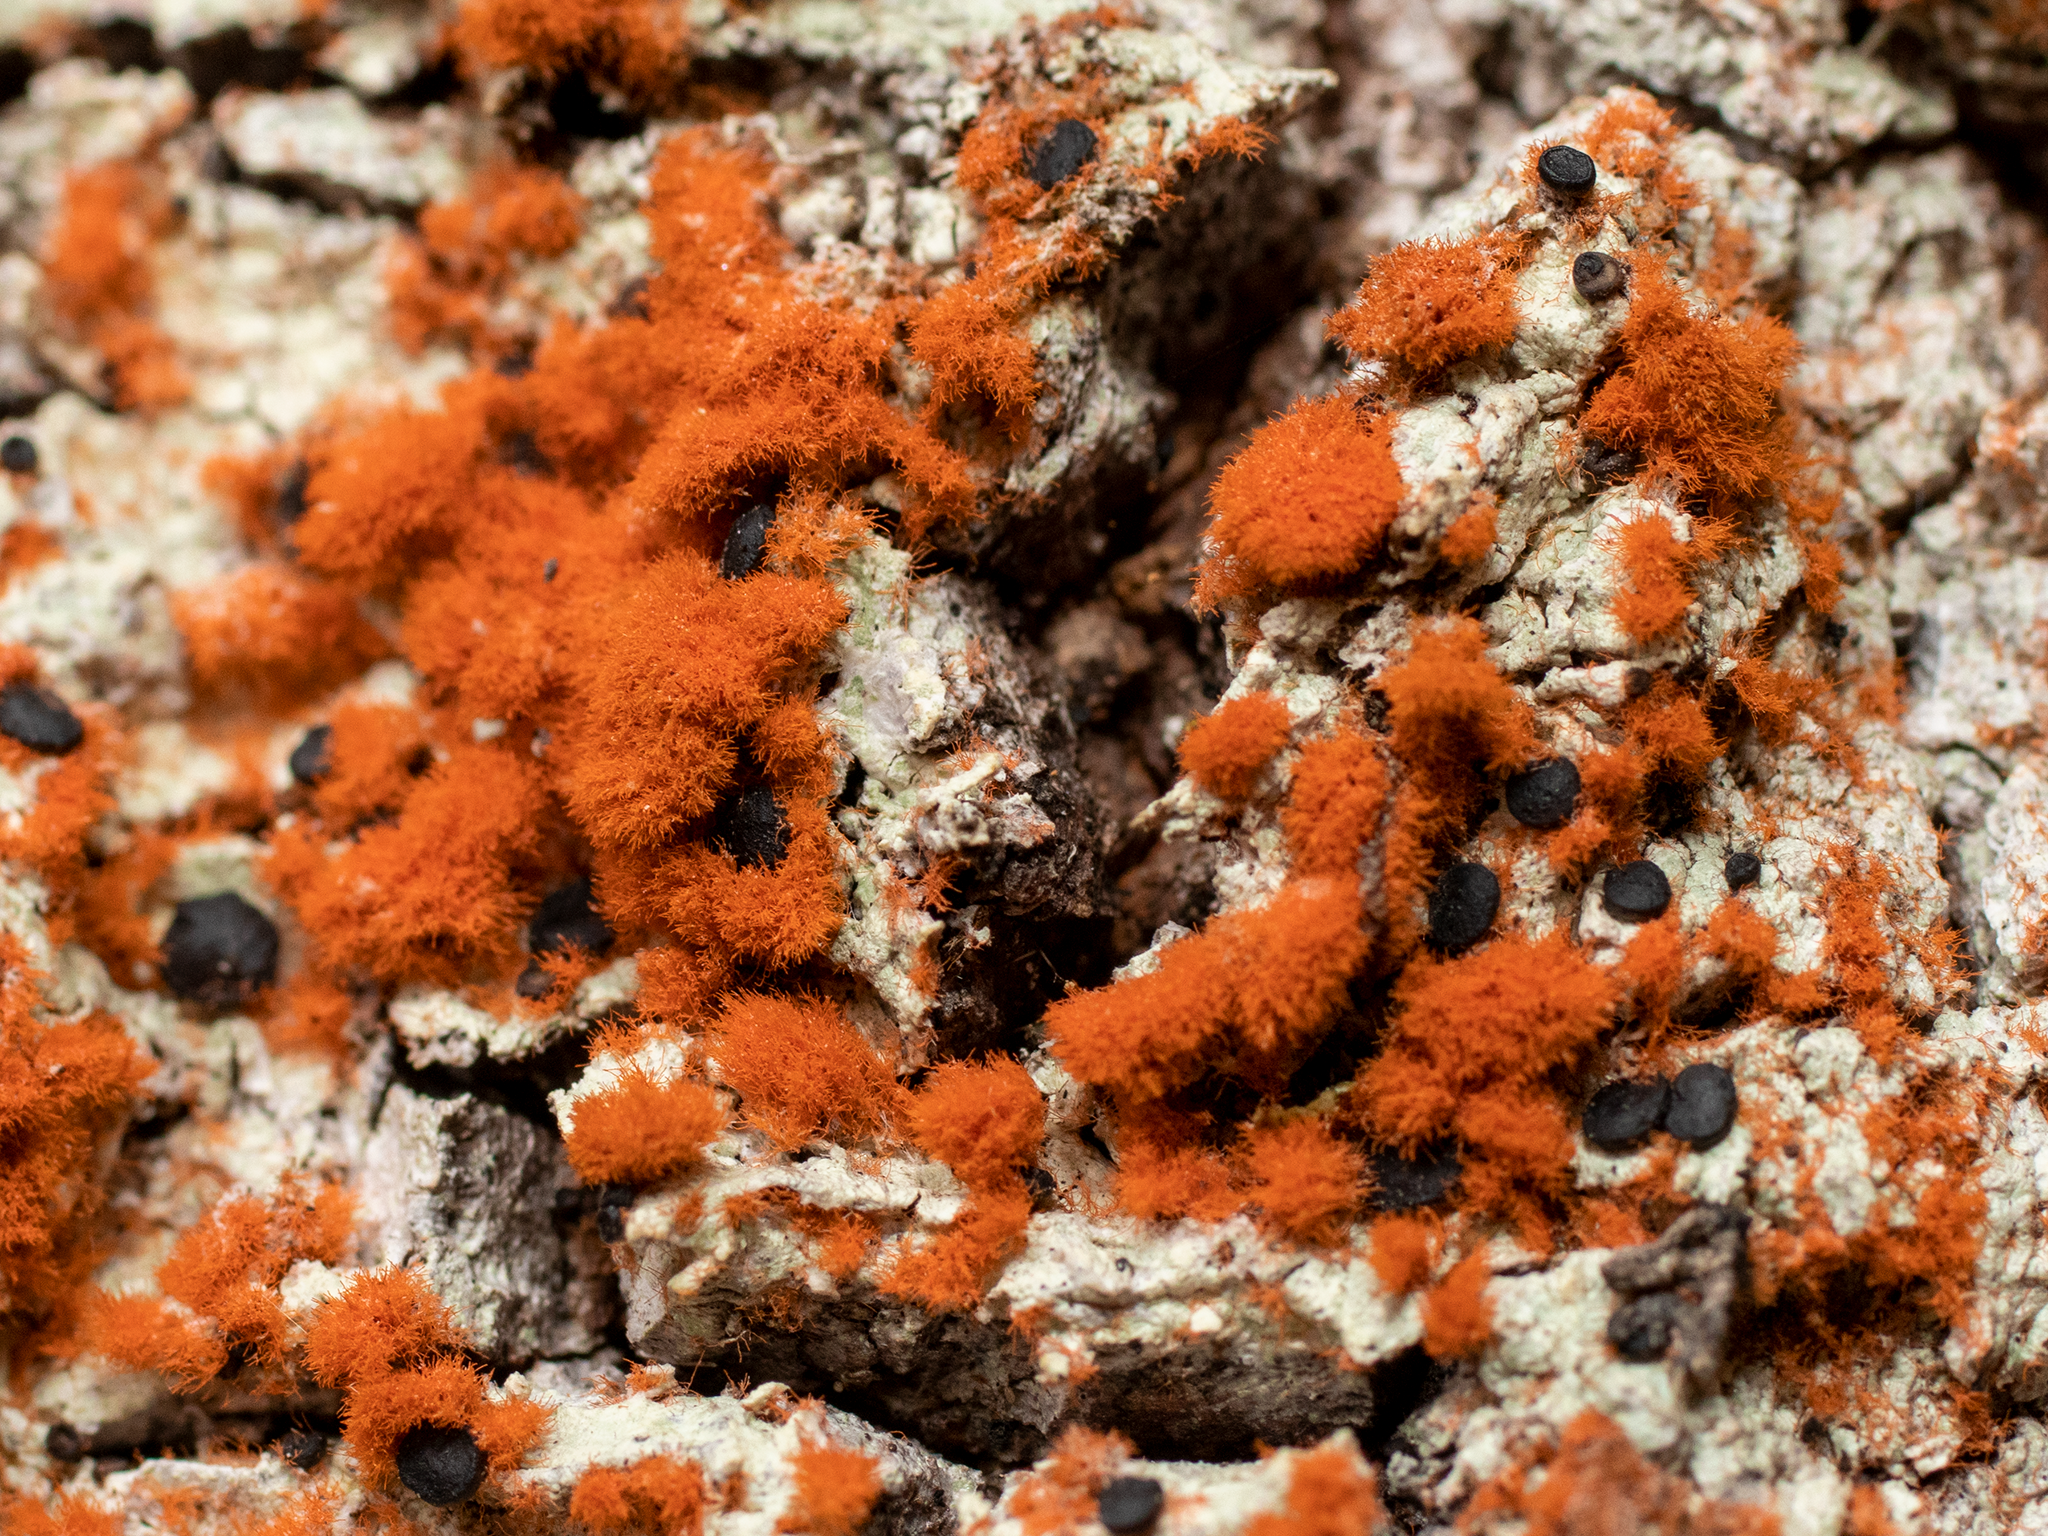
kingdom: Plantae
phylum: Chlorophyta
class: Ulvophyceae
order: Trentepohliales
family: Trentepohliaceae
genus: Trentepohlia
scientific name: Trentepohlia aurea
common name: Orange rock hair
